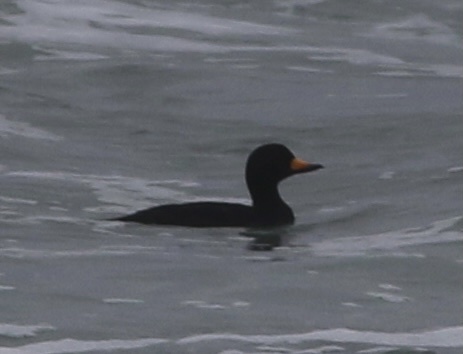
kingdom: Animalia
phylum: Chordata
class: Aves
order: Anseriformes
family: Anatidae
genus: Melanitta
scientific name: Melanitta americana
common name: Black scoter
